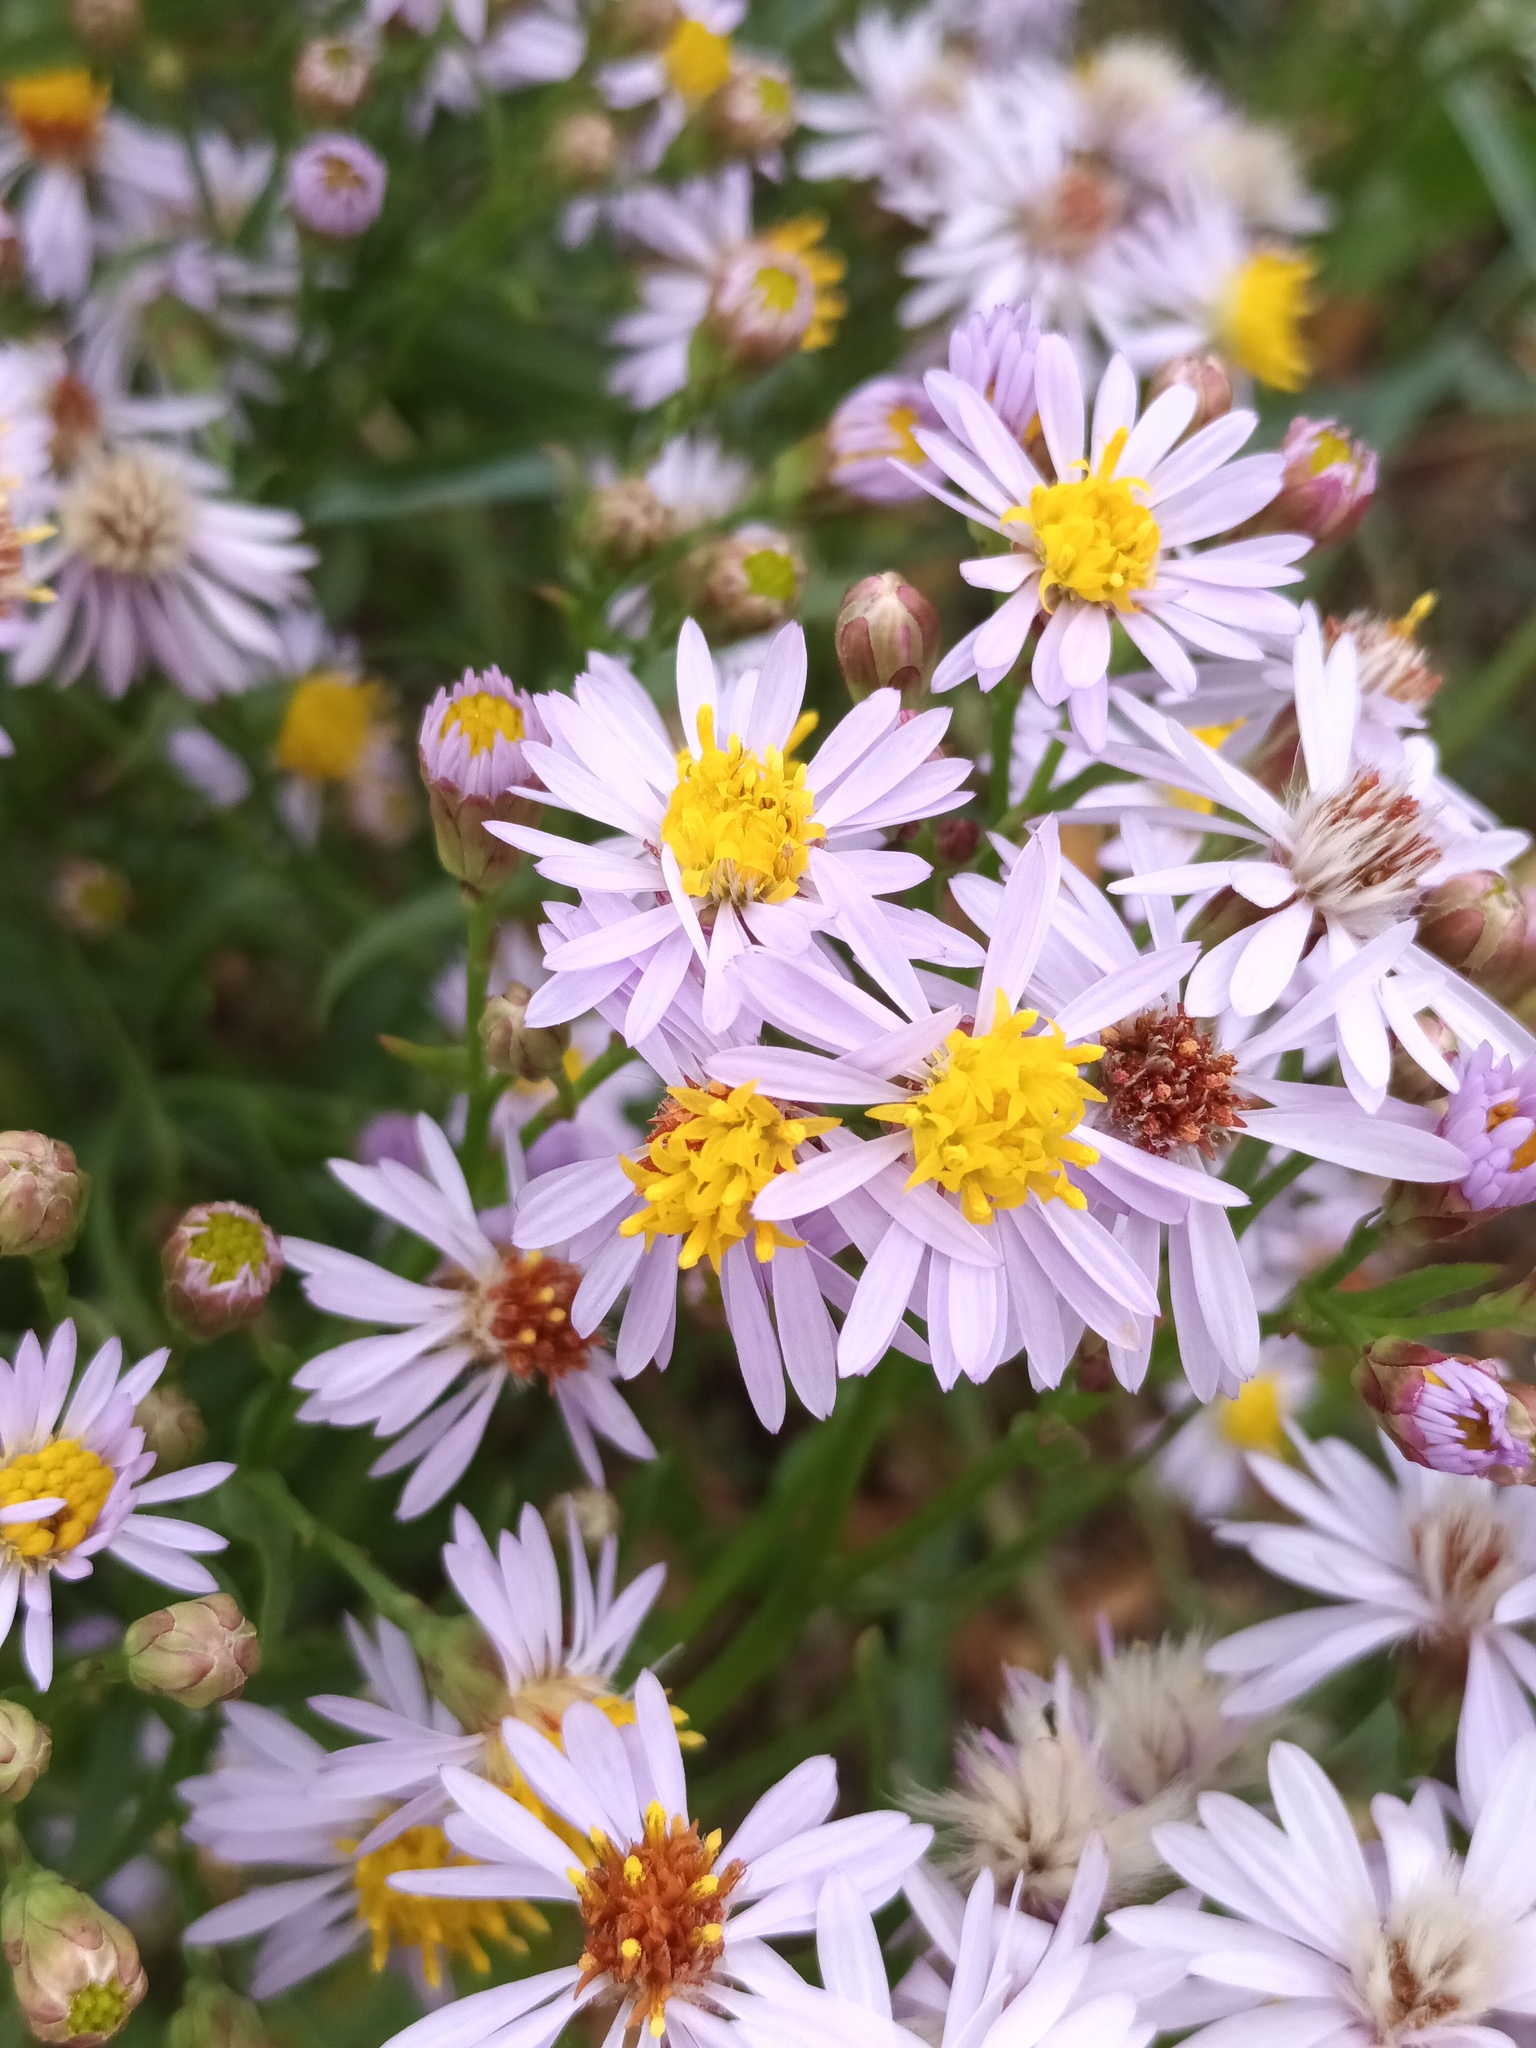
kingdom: Plantae
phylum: Tracheophyta
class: Magnoliopsida
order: Asterales
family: Asteraceae
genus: Tripolium
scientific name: Tripolium pannonicum
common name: Sea aster
